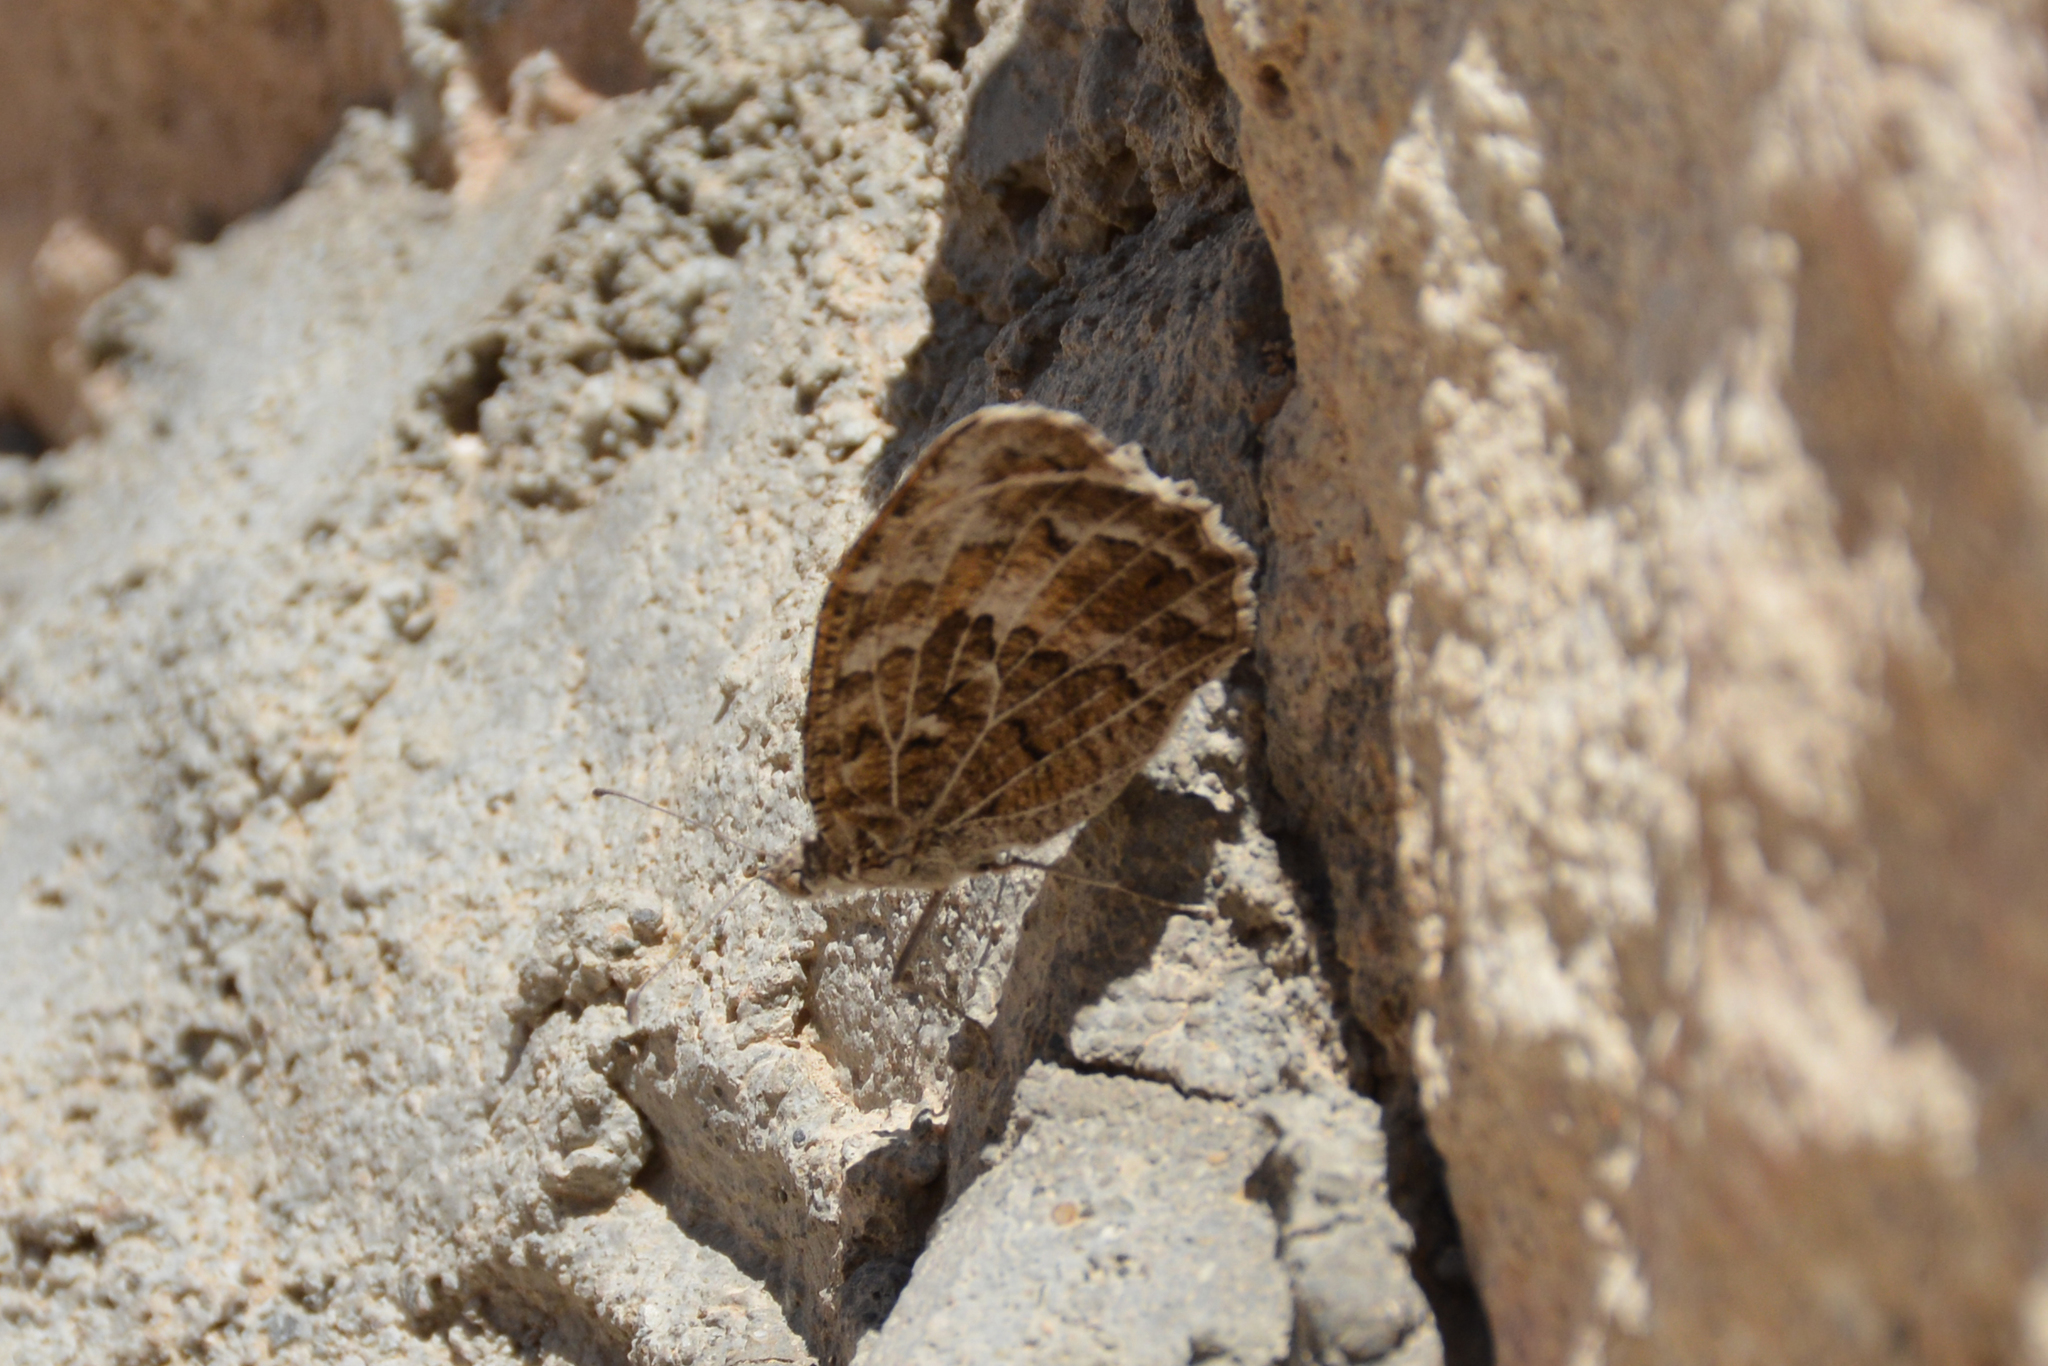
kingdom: Animalia
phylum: Arthropoda
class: Insecta
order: Lepidoptera
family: Nymphalidae
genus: Satyrus
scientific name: Satyrus Chazara persephone
